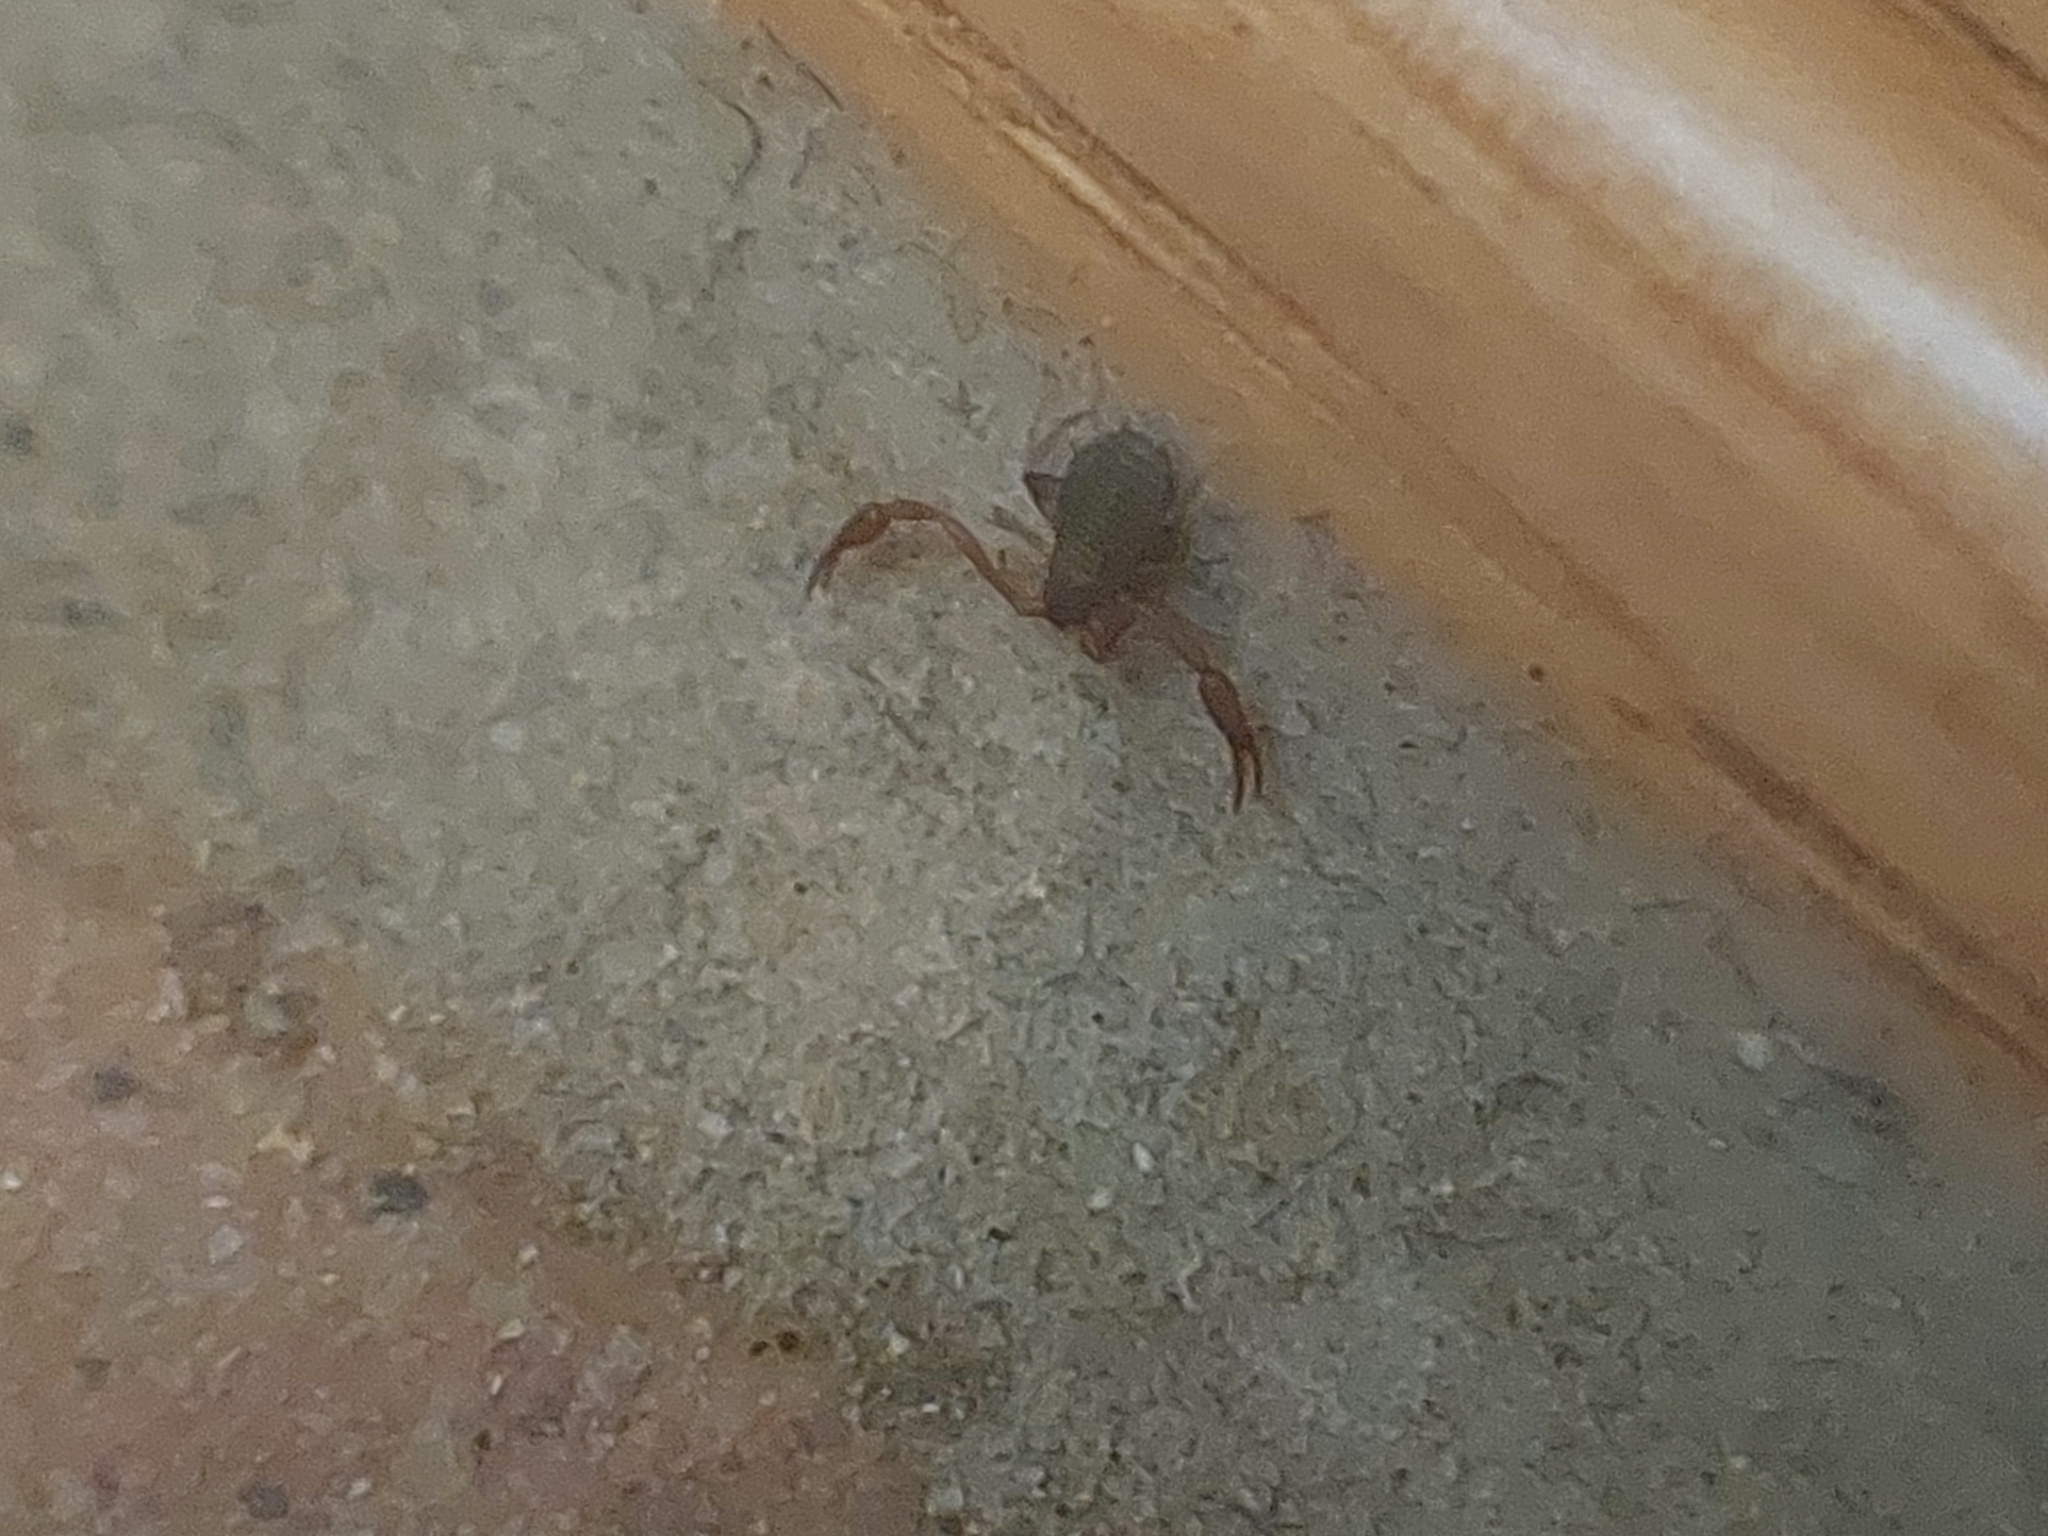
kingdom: Animalia
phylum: Arthropoda
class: Arachnida
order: Pseudoscorpiones
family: Cheliferidae
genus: Chelifer
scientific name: Chelifer cancroides
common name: House false-scorpion
